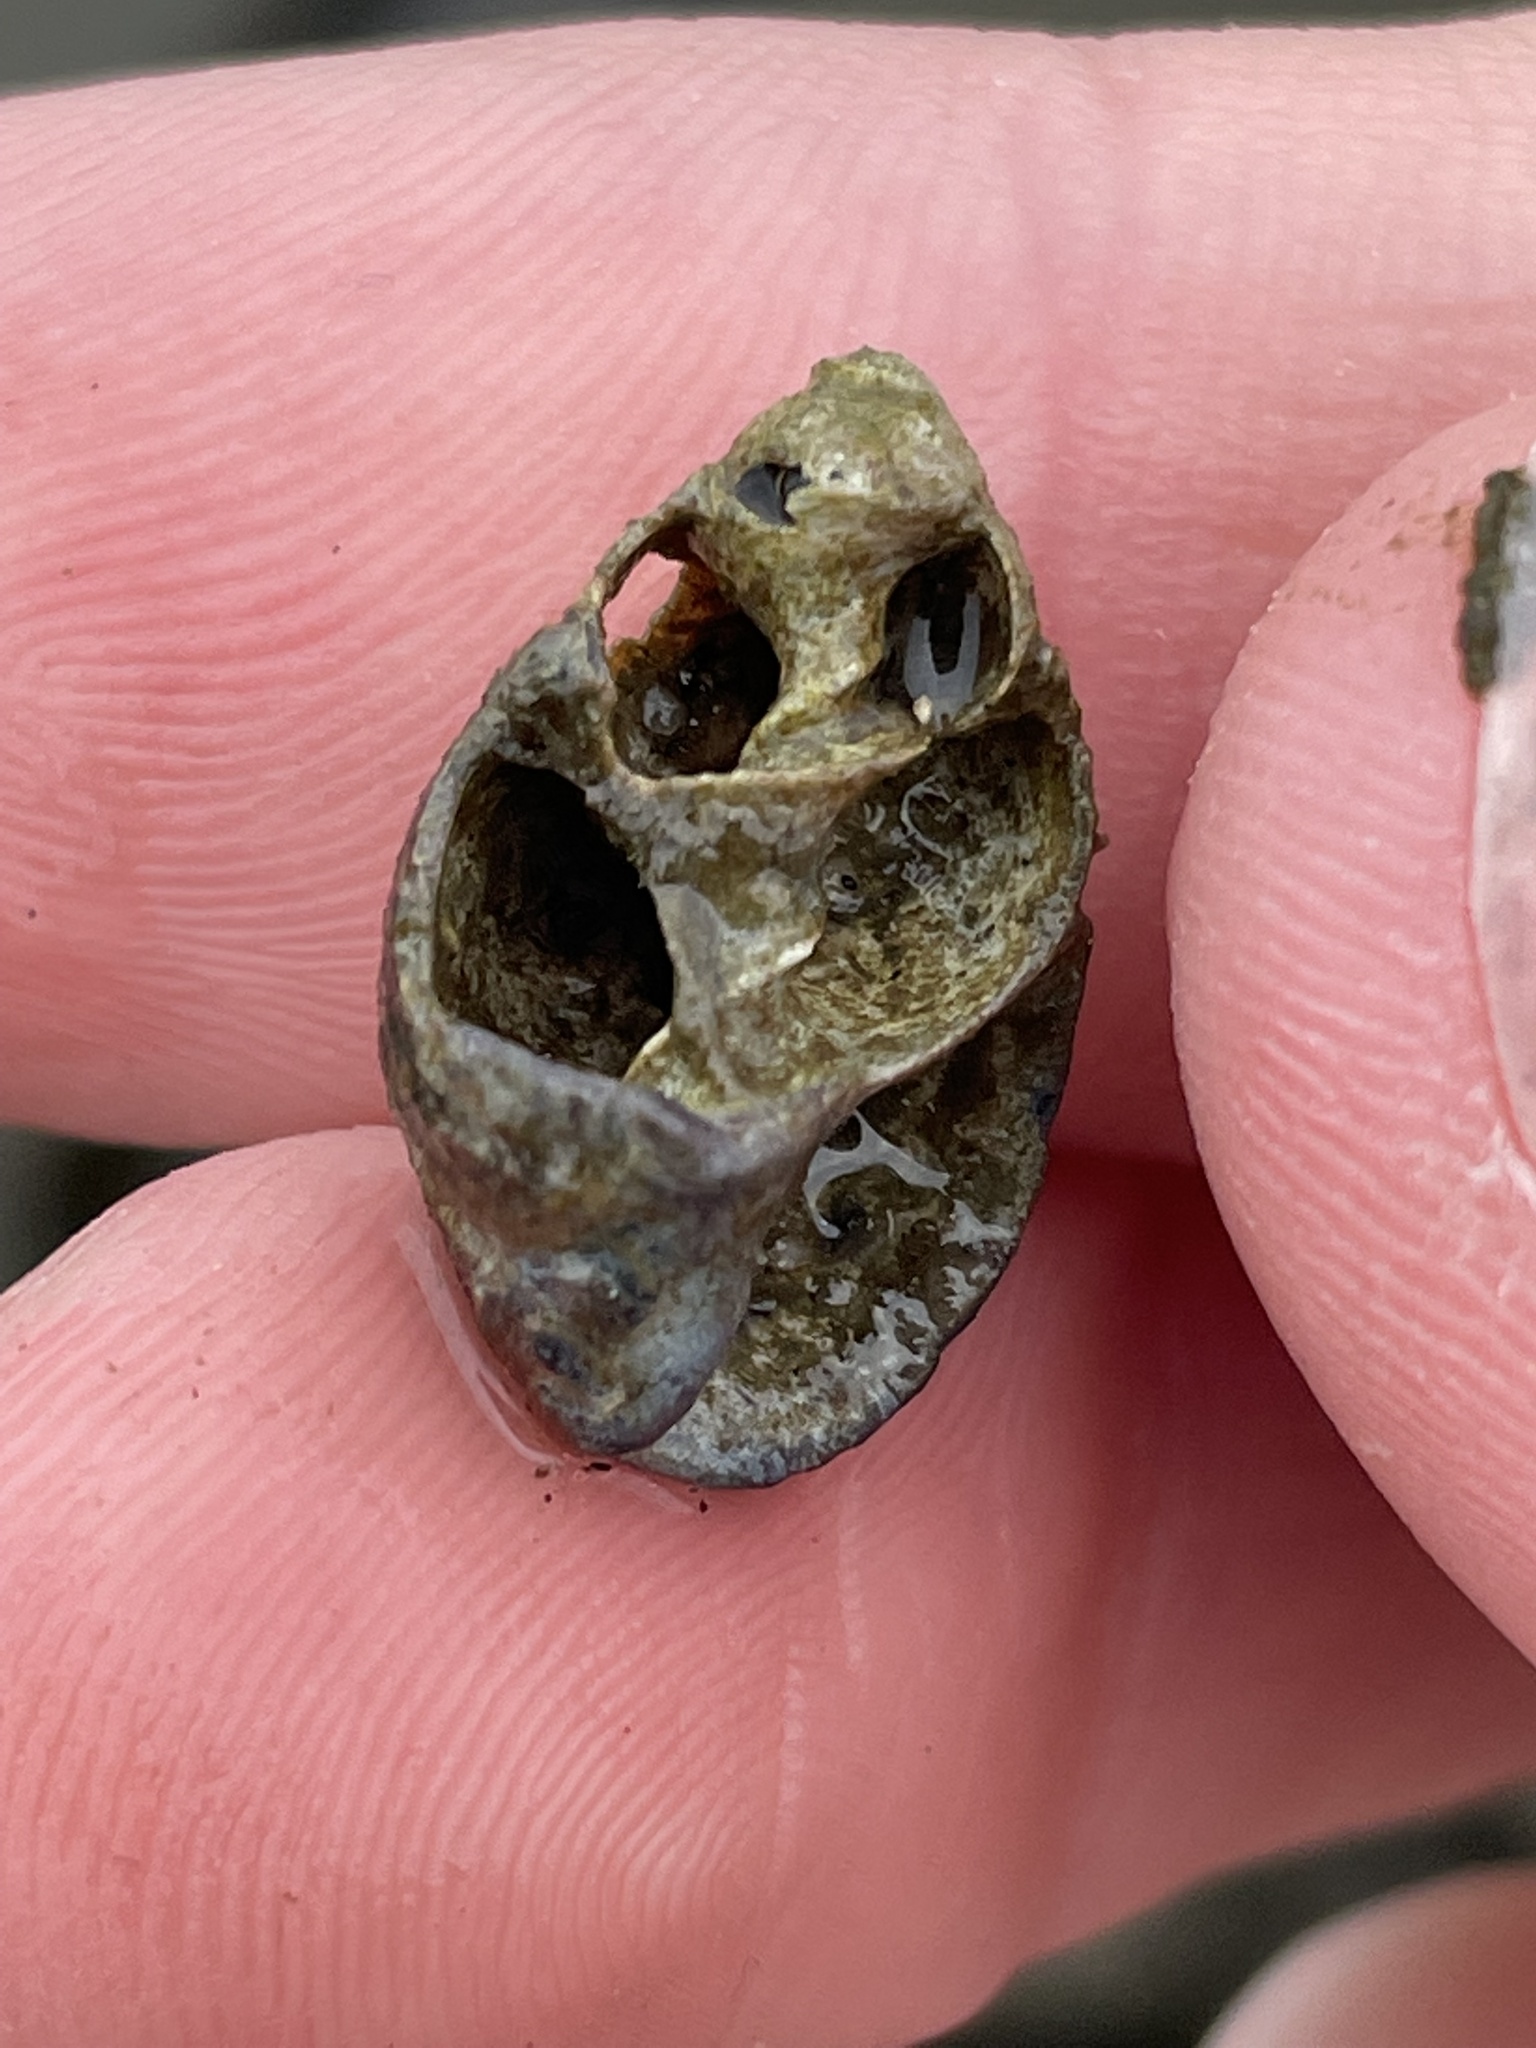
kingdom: Animalia
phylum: Mollusca
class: Gastropoda
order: Neogastropoda
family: Nassariidae
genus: Ilyanassa
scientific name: Ilyanassa obsoleta
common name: Eastern mudsnail
